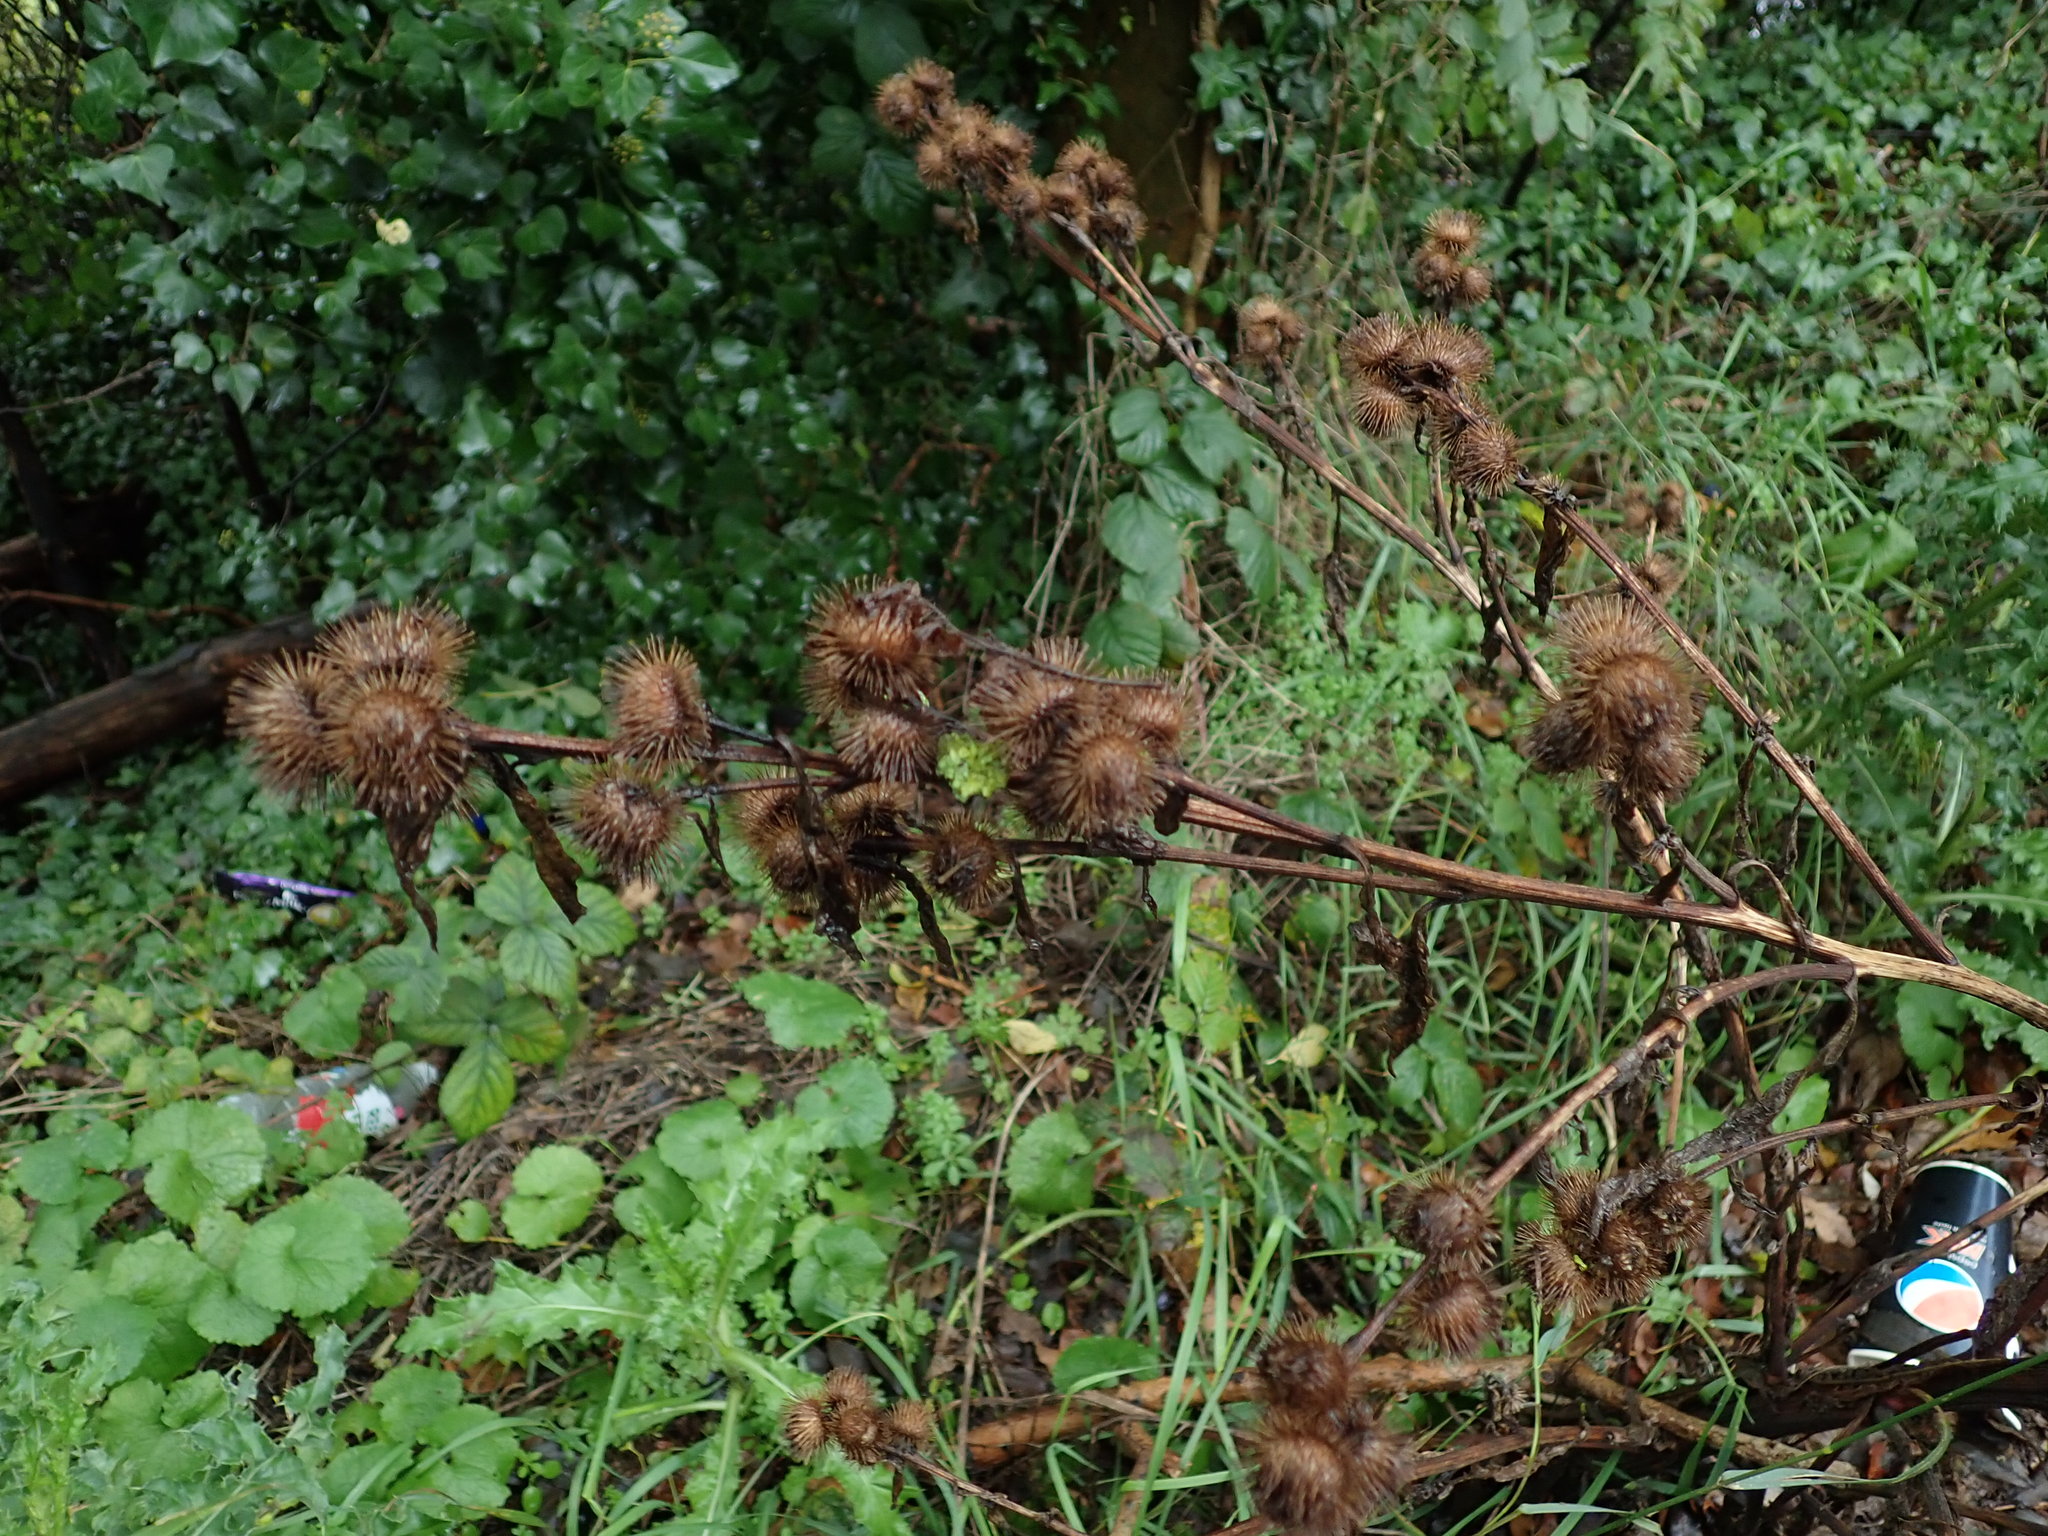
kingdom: Plantae
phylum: Tracheophyta
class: Magnoliopsida
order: Asterales
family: Asteraceae
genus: Arctium
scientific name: Arctium minus
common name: Lesser burdock
